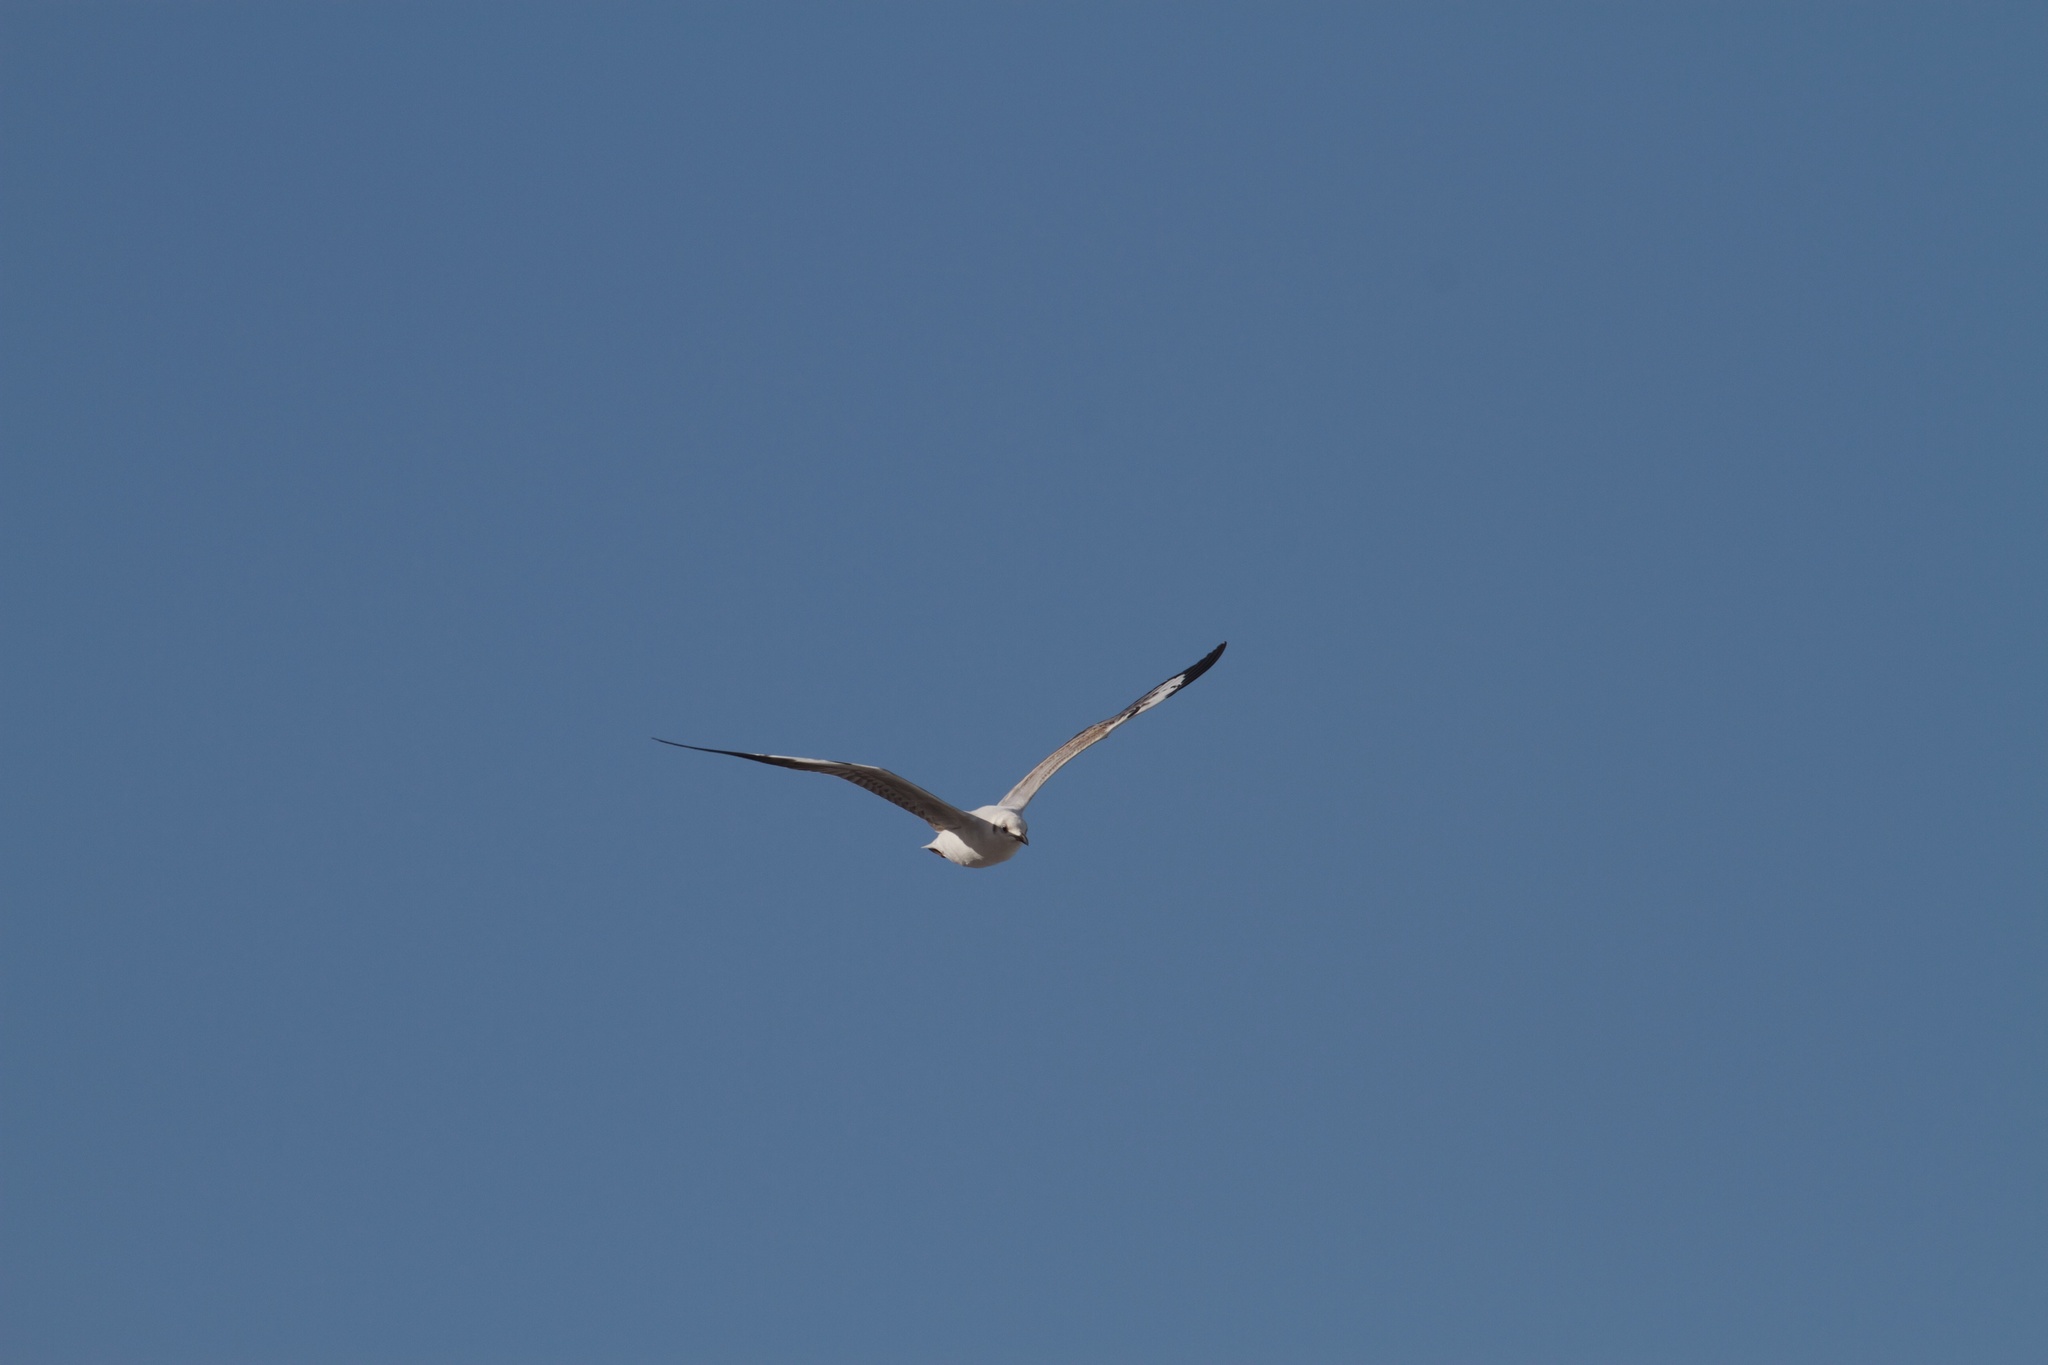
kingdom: Animalia
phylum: Chordata
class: Aves
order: Charadriiformes
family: Laridae
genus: Chroicocephalus
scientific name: Chroicocephalus cirrocephalus
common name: Grey-headed gull
